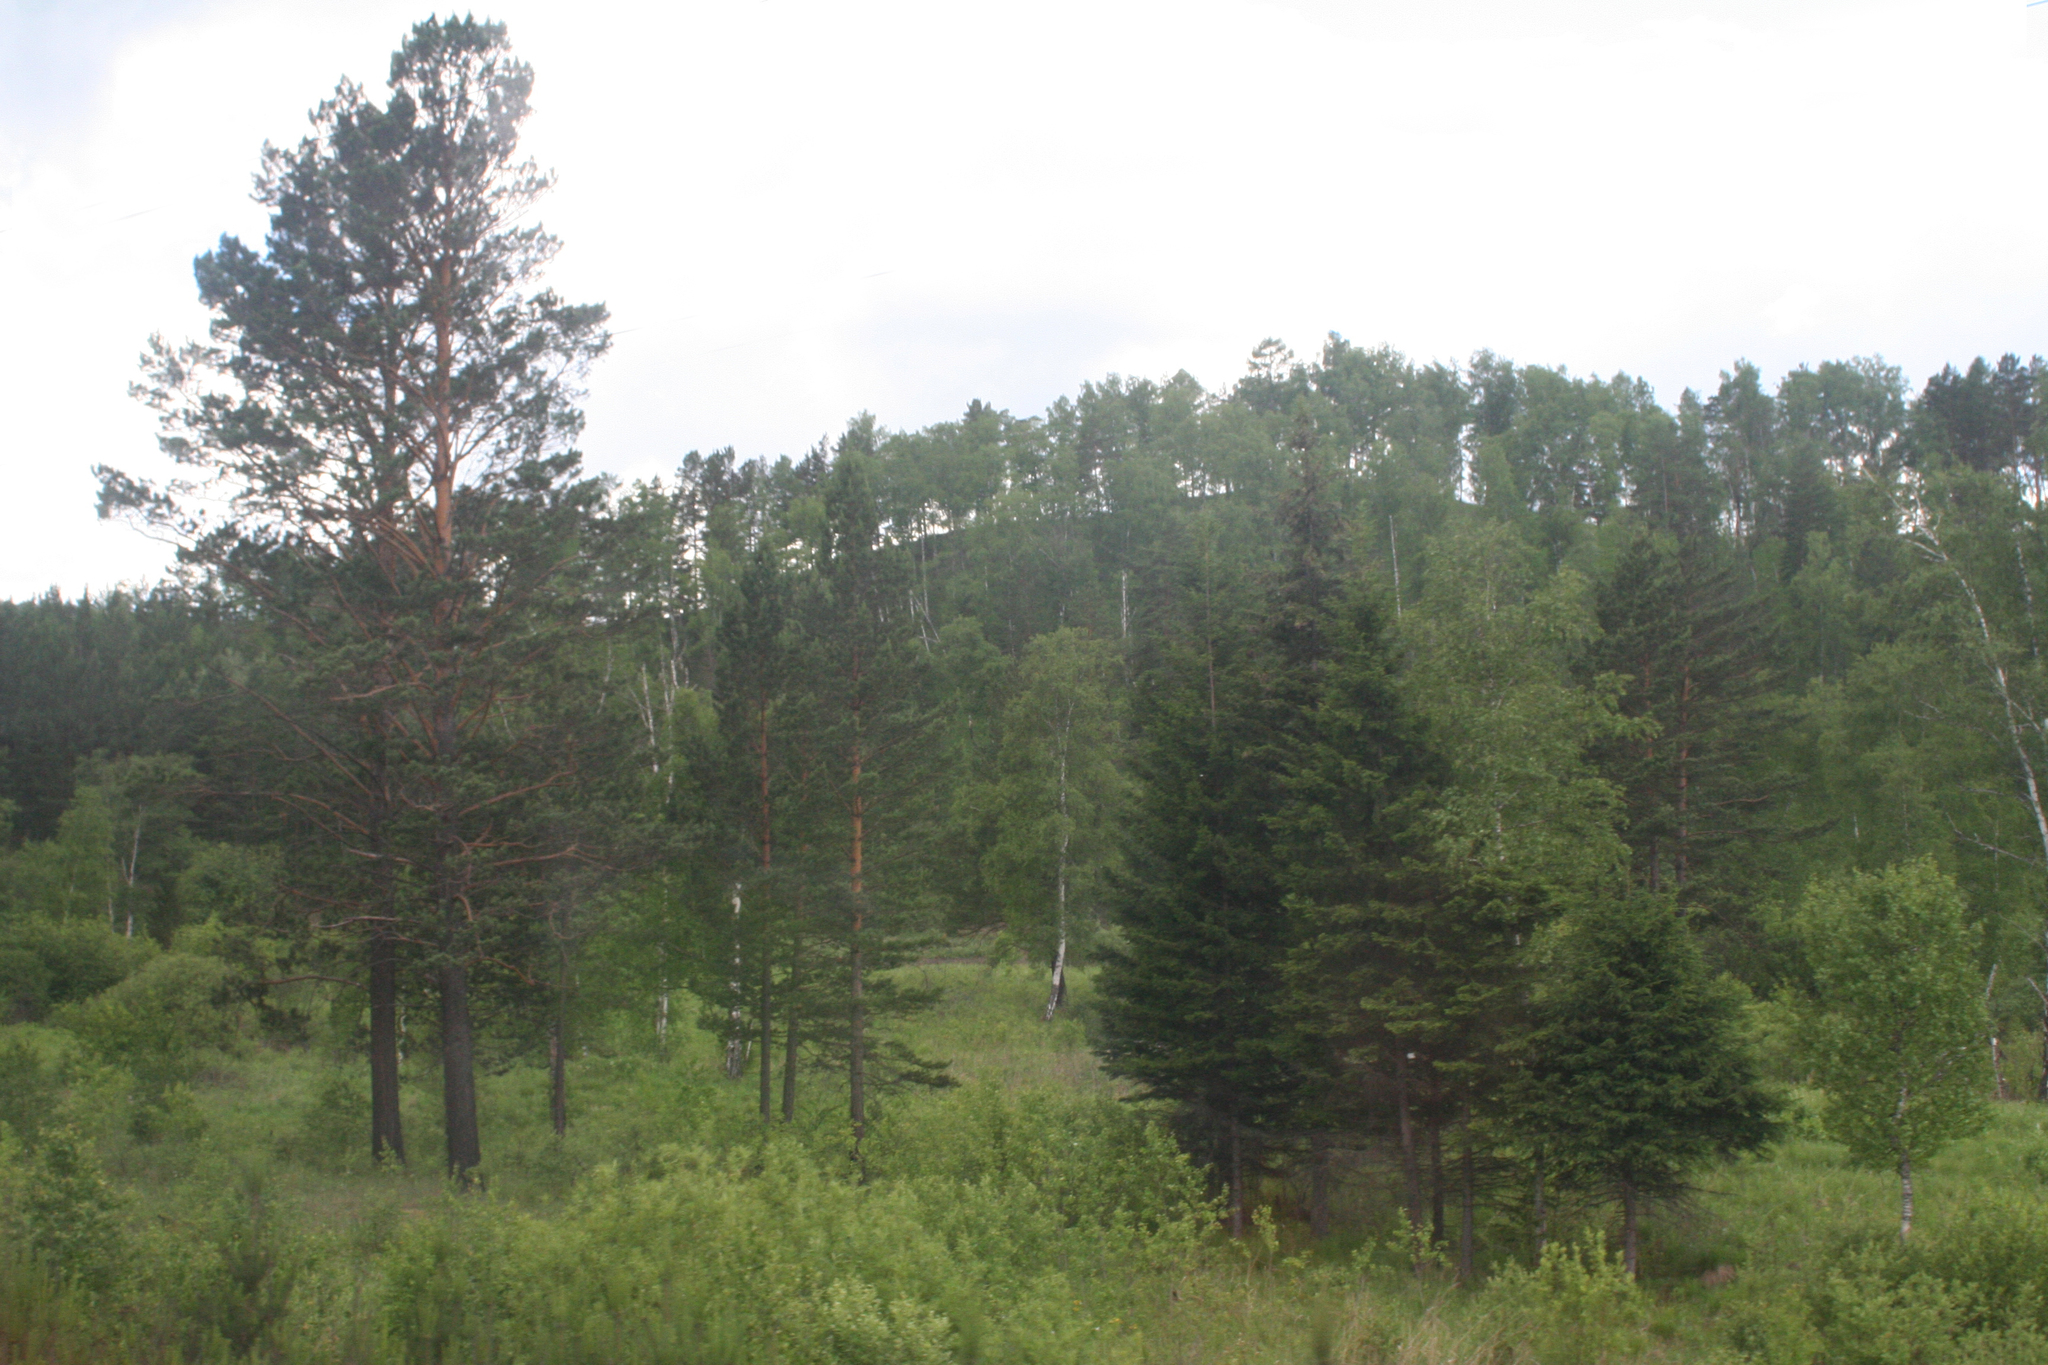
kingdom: Plantae
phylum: Tracheophyta
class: Pinopsida
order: Pinales
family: Pinaceae
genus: Pinus
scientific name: Pinus sylvestris
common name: Scots pine
